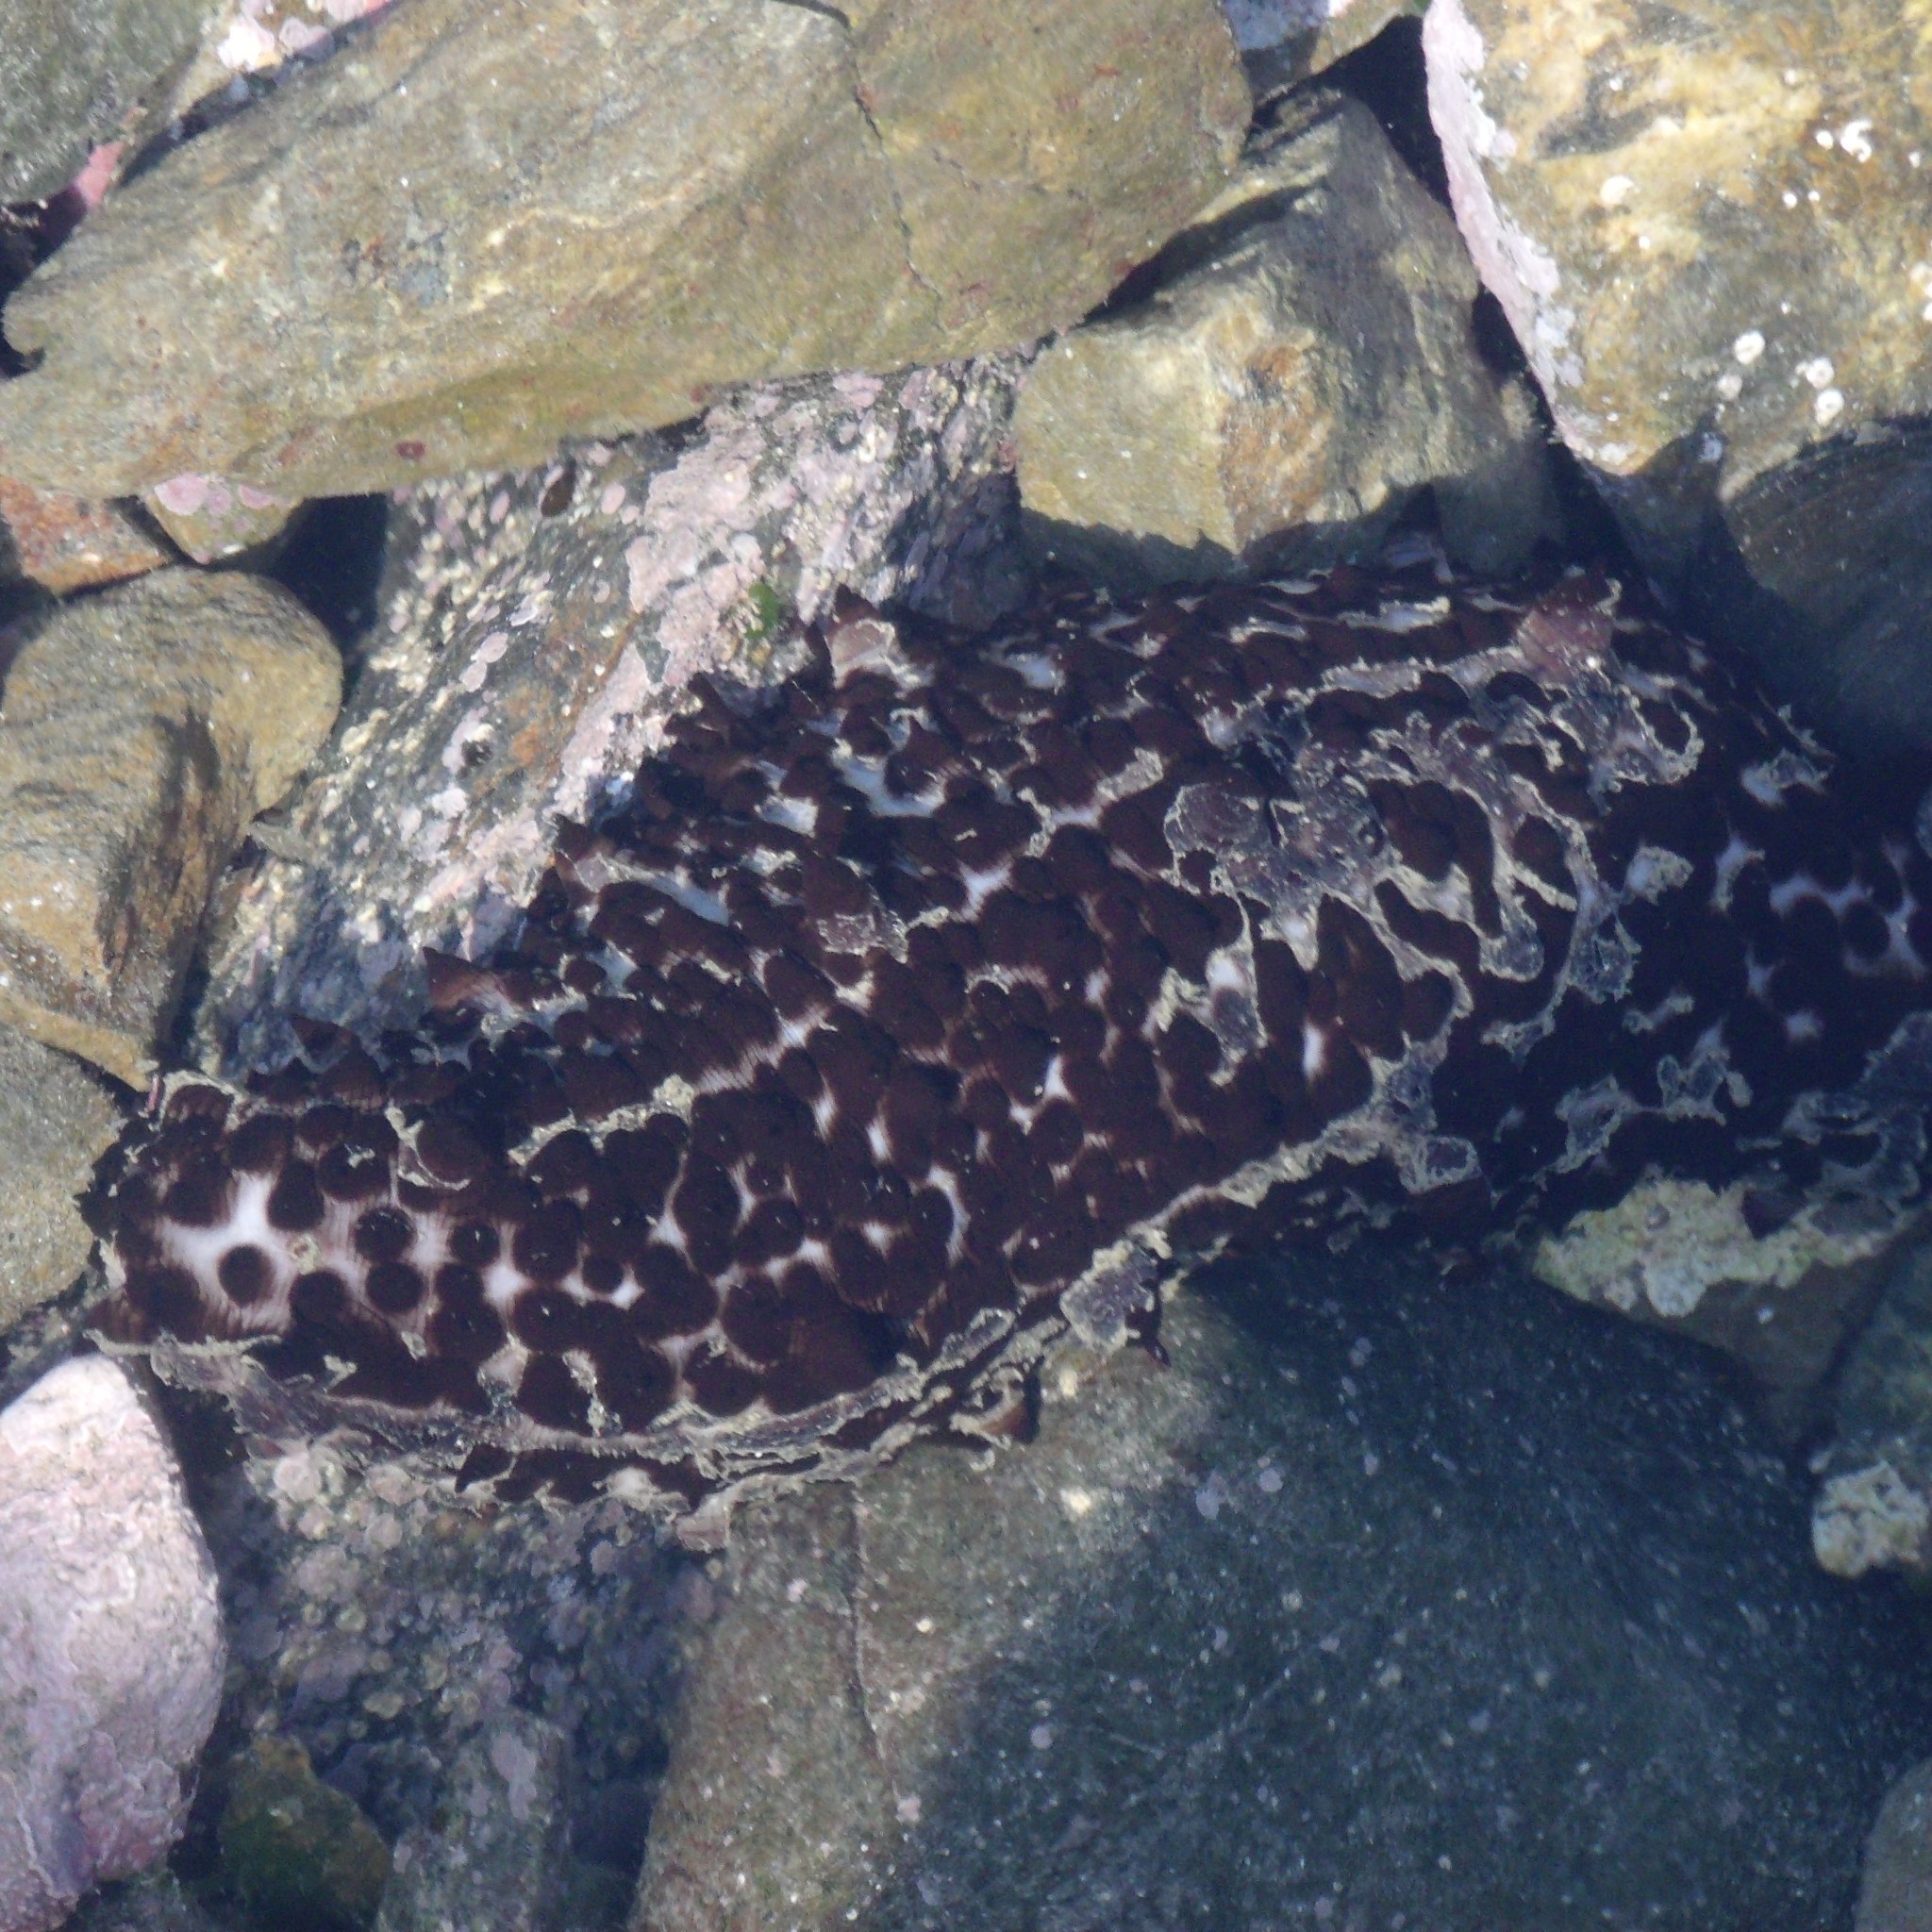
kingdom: Animalia
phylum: Echinodermata
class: Holothuroidea
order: Synallactida
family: Stichopodidae
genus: Australostichopus
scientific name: Australostichopus mollis
